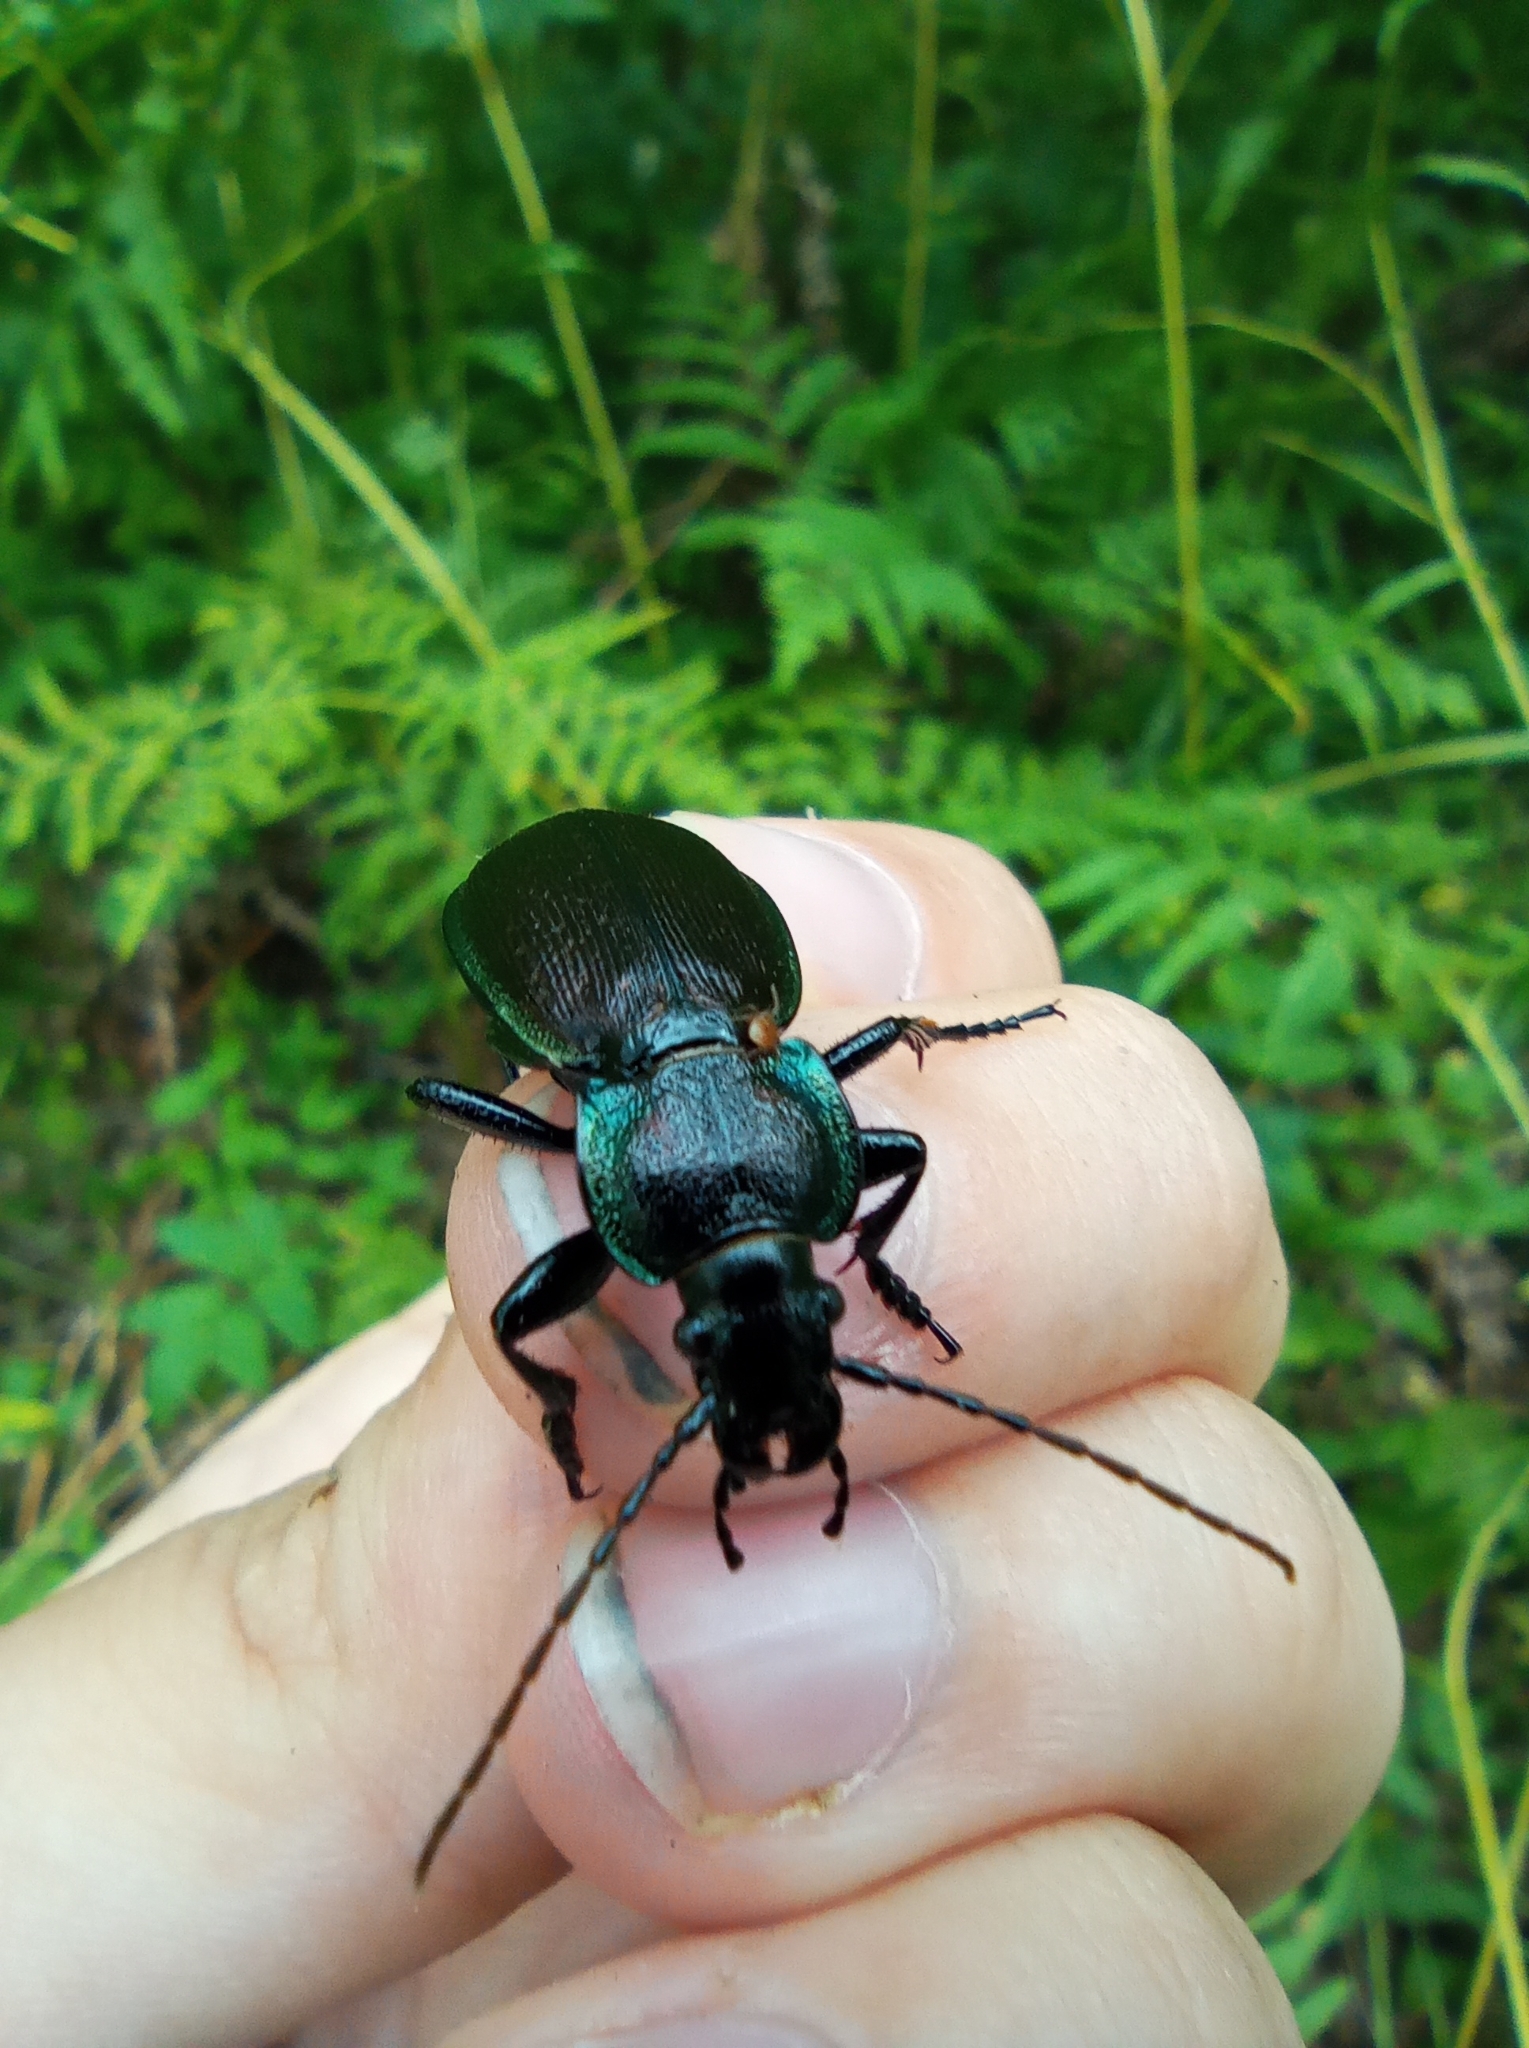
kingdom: Animalia
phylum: Arthropoda
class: Insecta
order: Coleoptera
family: Carabidae
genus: Carabus
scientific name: Carabus regalis
